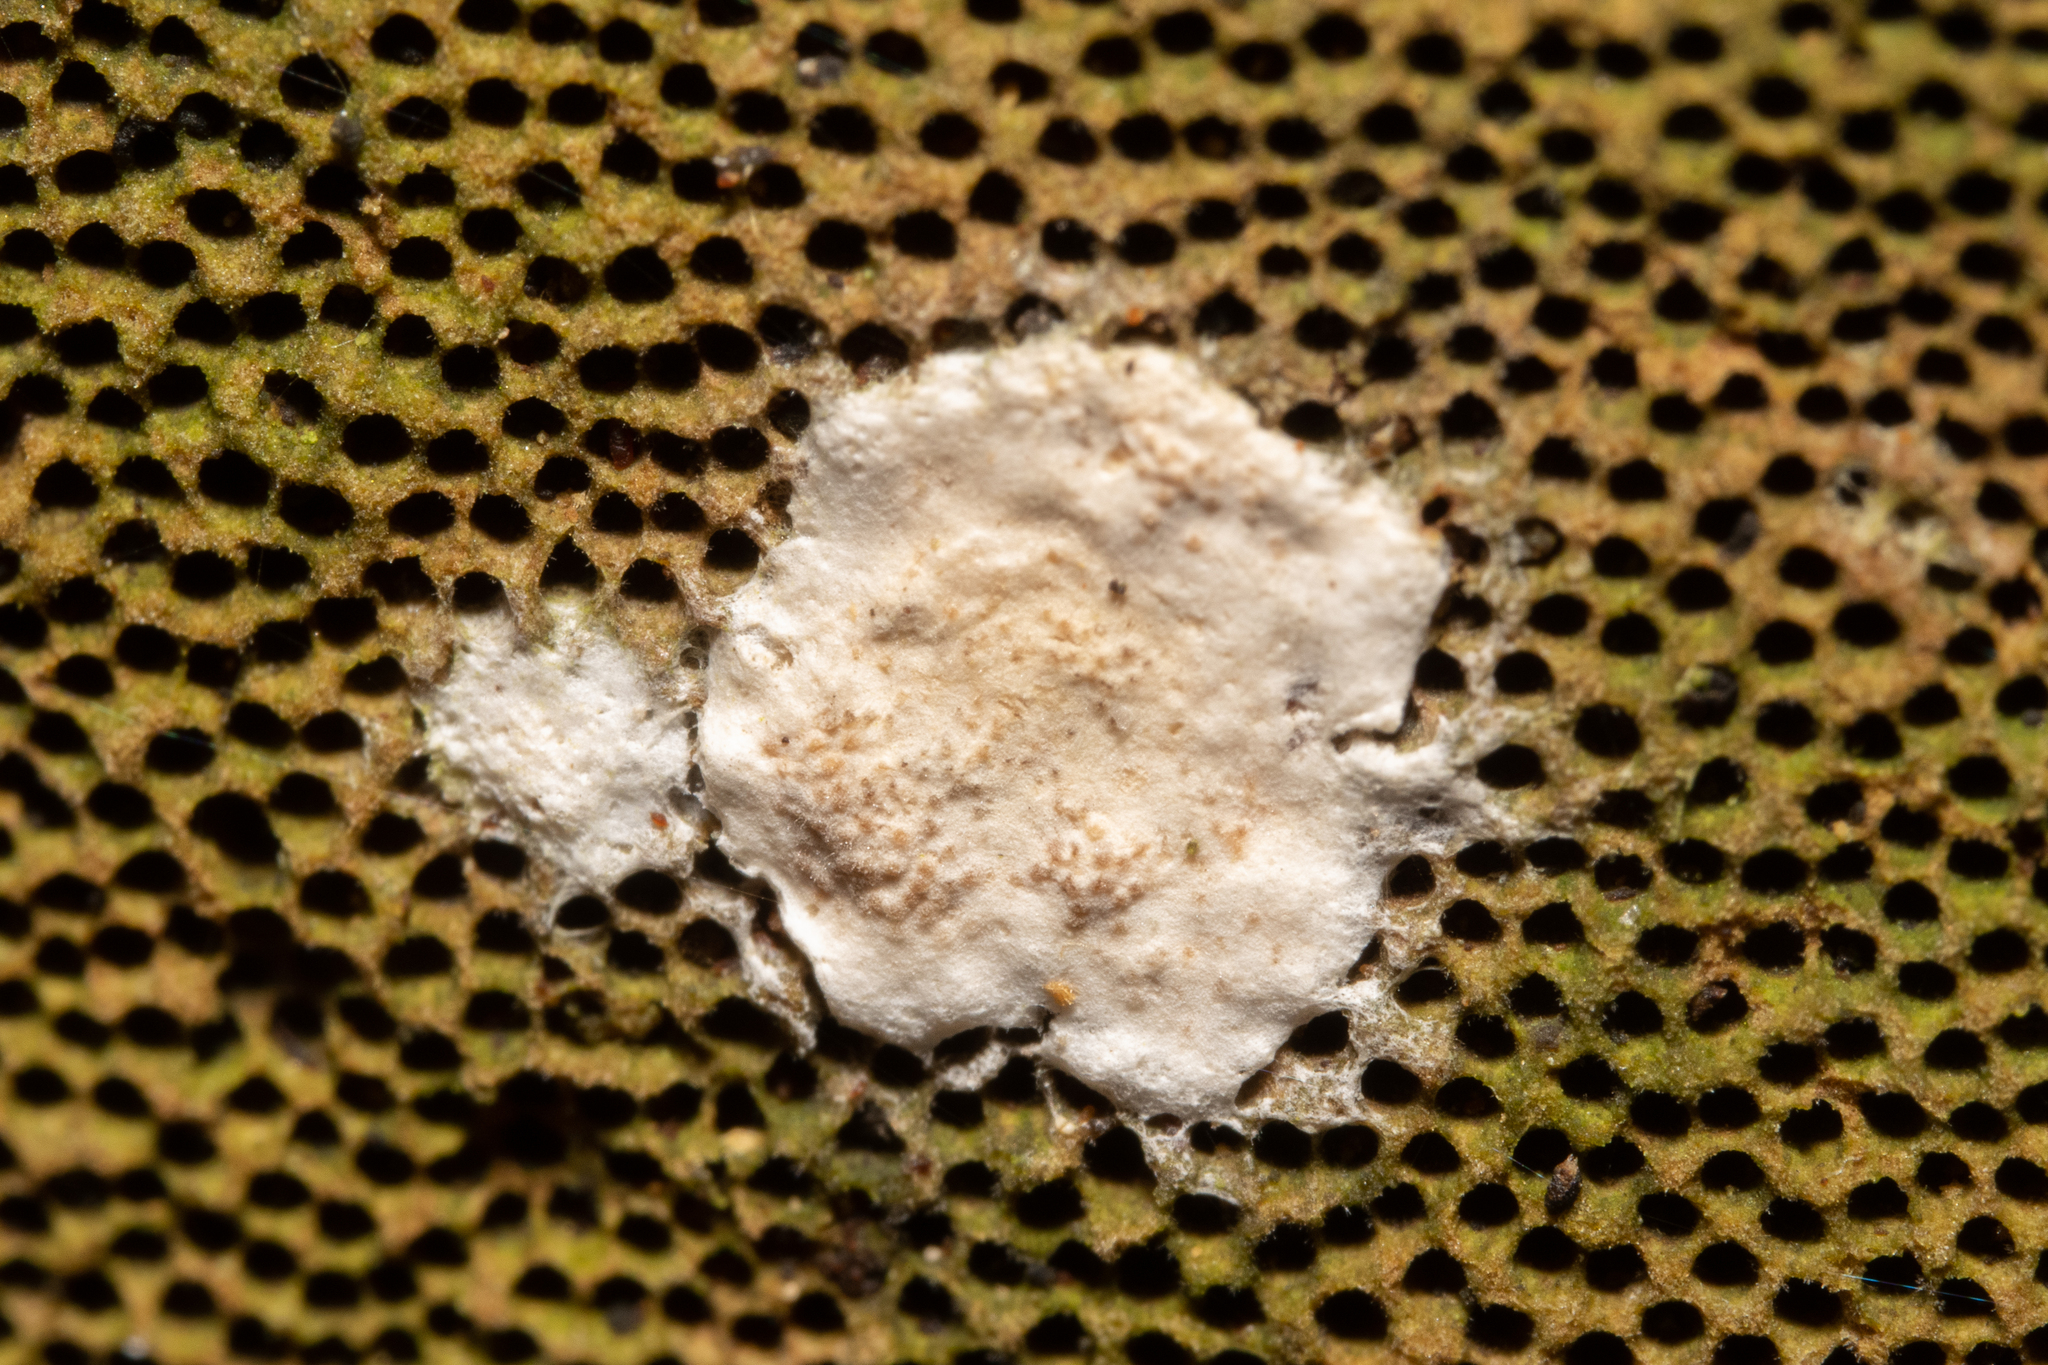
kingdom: Fungi
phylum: Ascomycota
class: Sordariomycetes
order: Hypocreales
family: Hypocreaceae
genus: Trichoderma
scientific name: Trichoderma pulvinatum
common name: Ochre cushion
